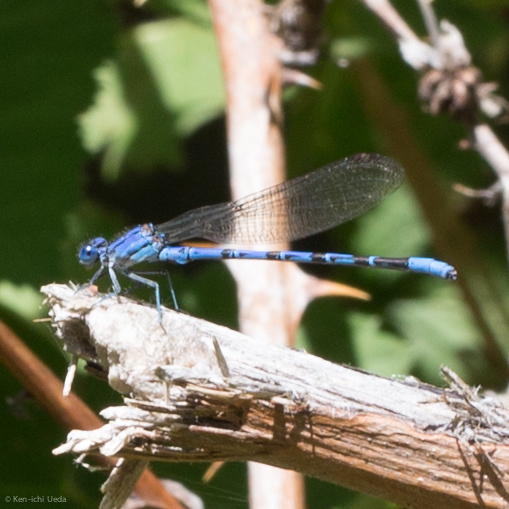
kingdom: Animalia
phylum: Arthropoda
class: Insecta
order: Odonata
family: Coenagrionidae
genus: Argia
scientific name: Argia vivida
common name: Vivid dancer
